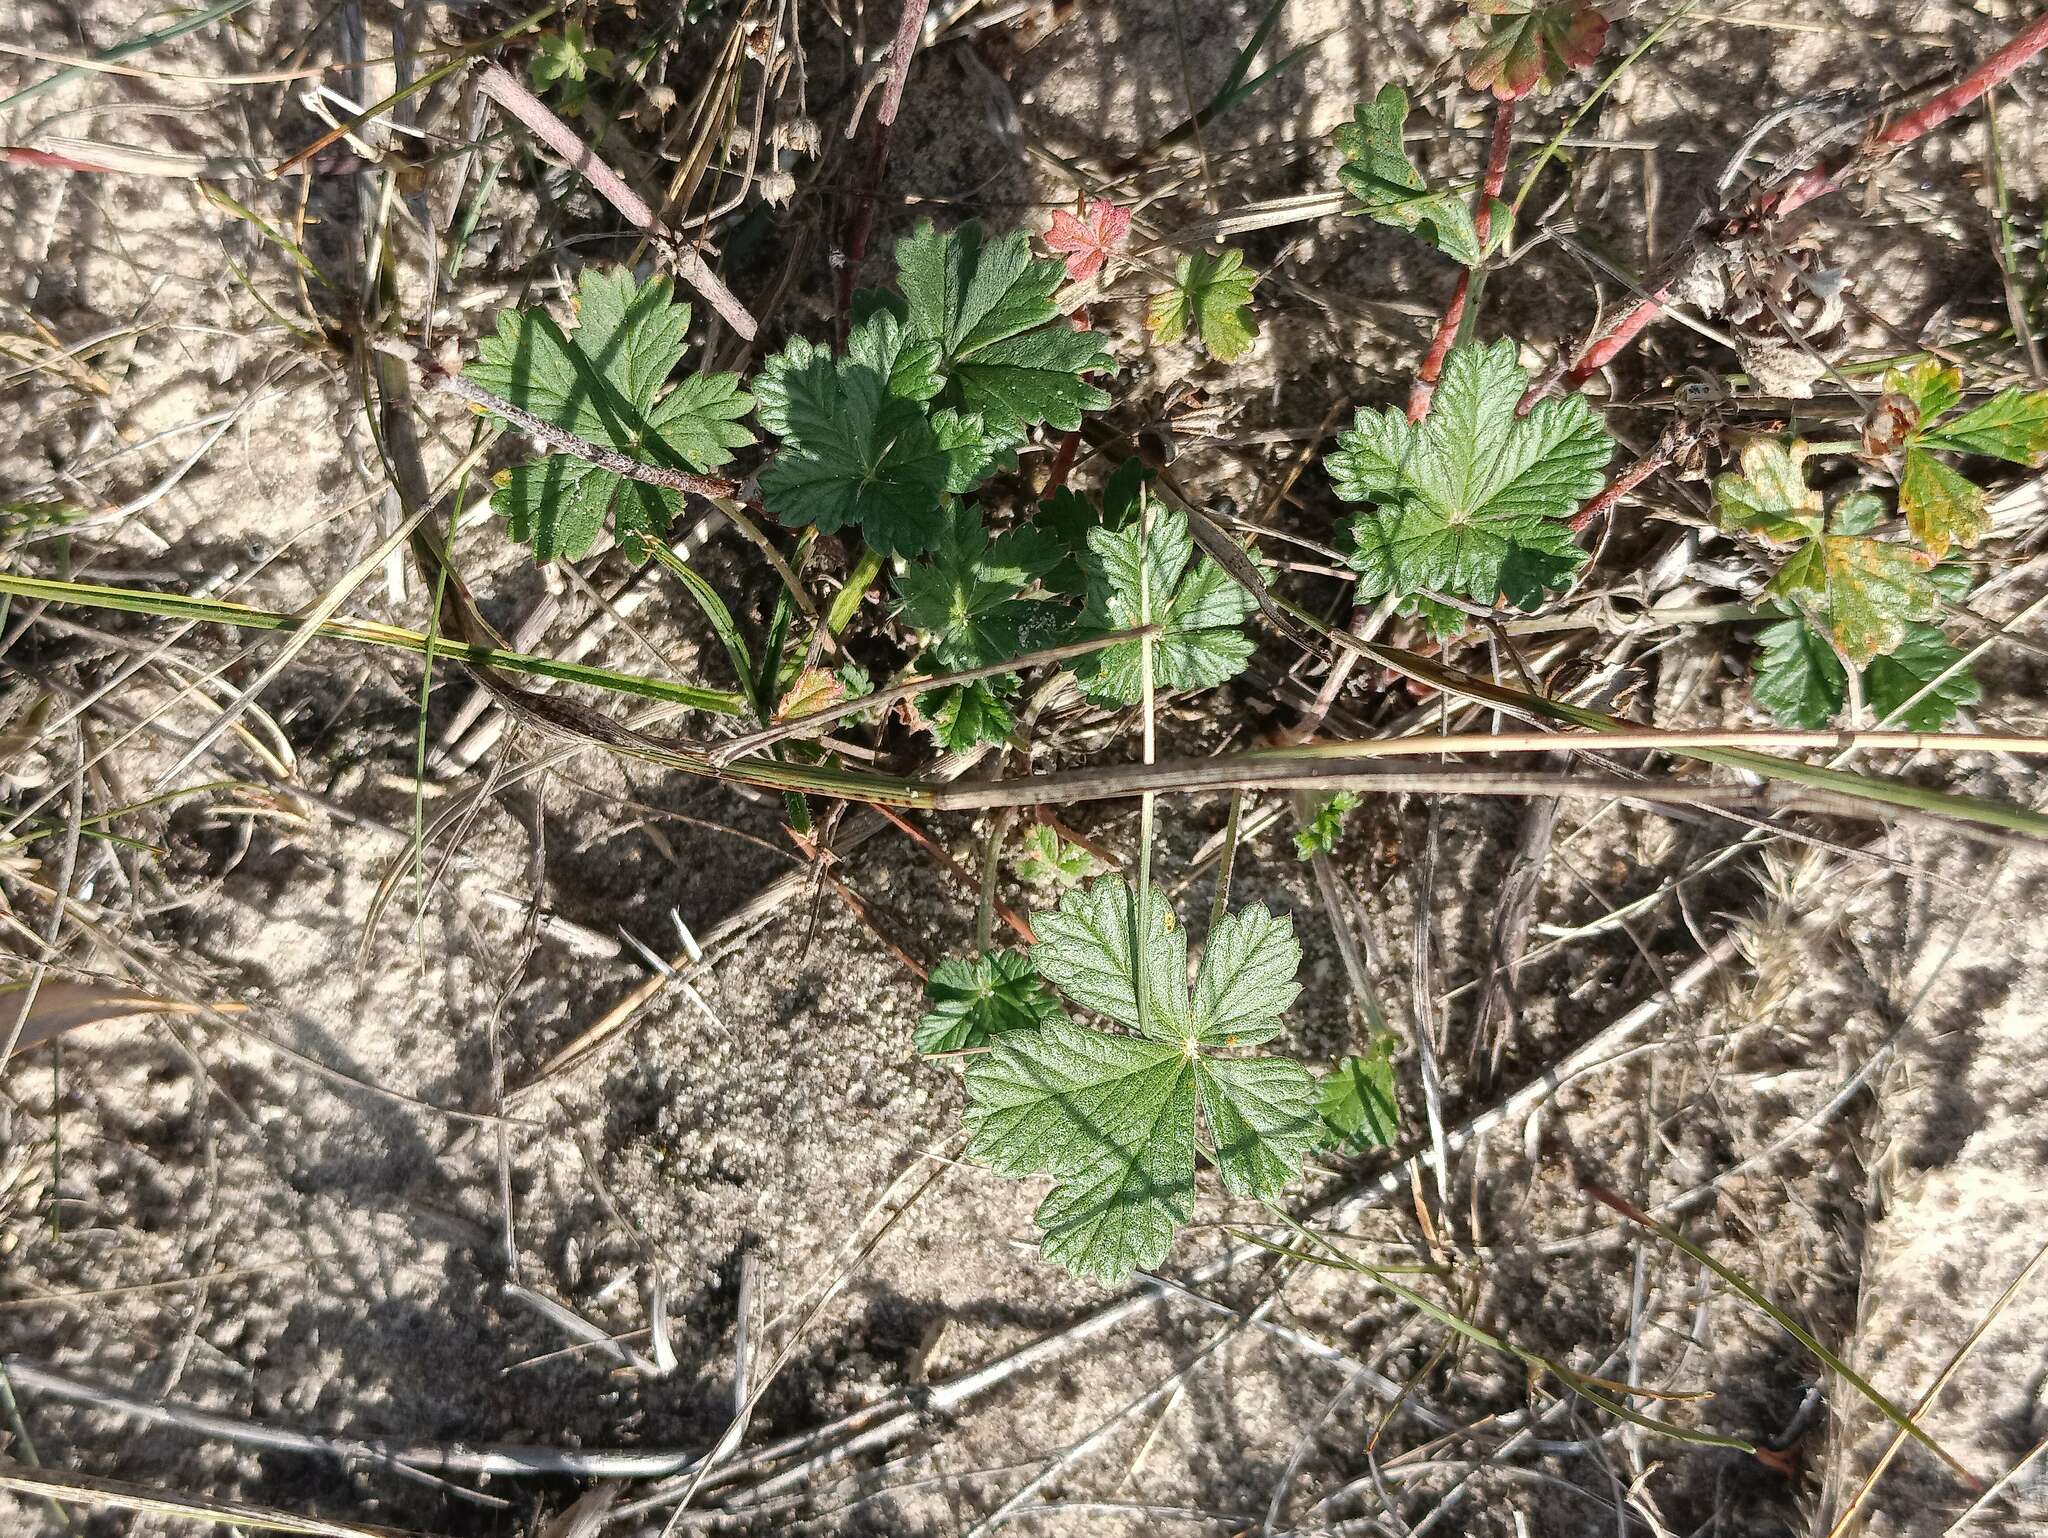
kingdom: Plantae
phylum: Tracheophyta
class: Magnoliopsida
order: Rosales
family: Rosaceae
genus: Potentilla
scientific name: Potentilla argentea
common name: Hoary cinquefoil
